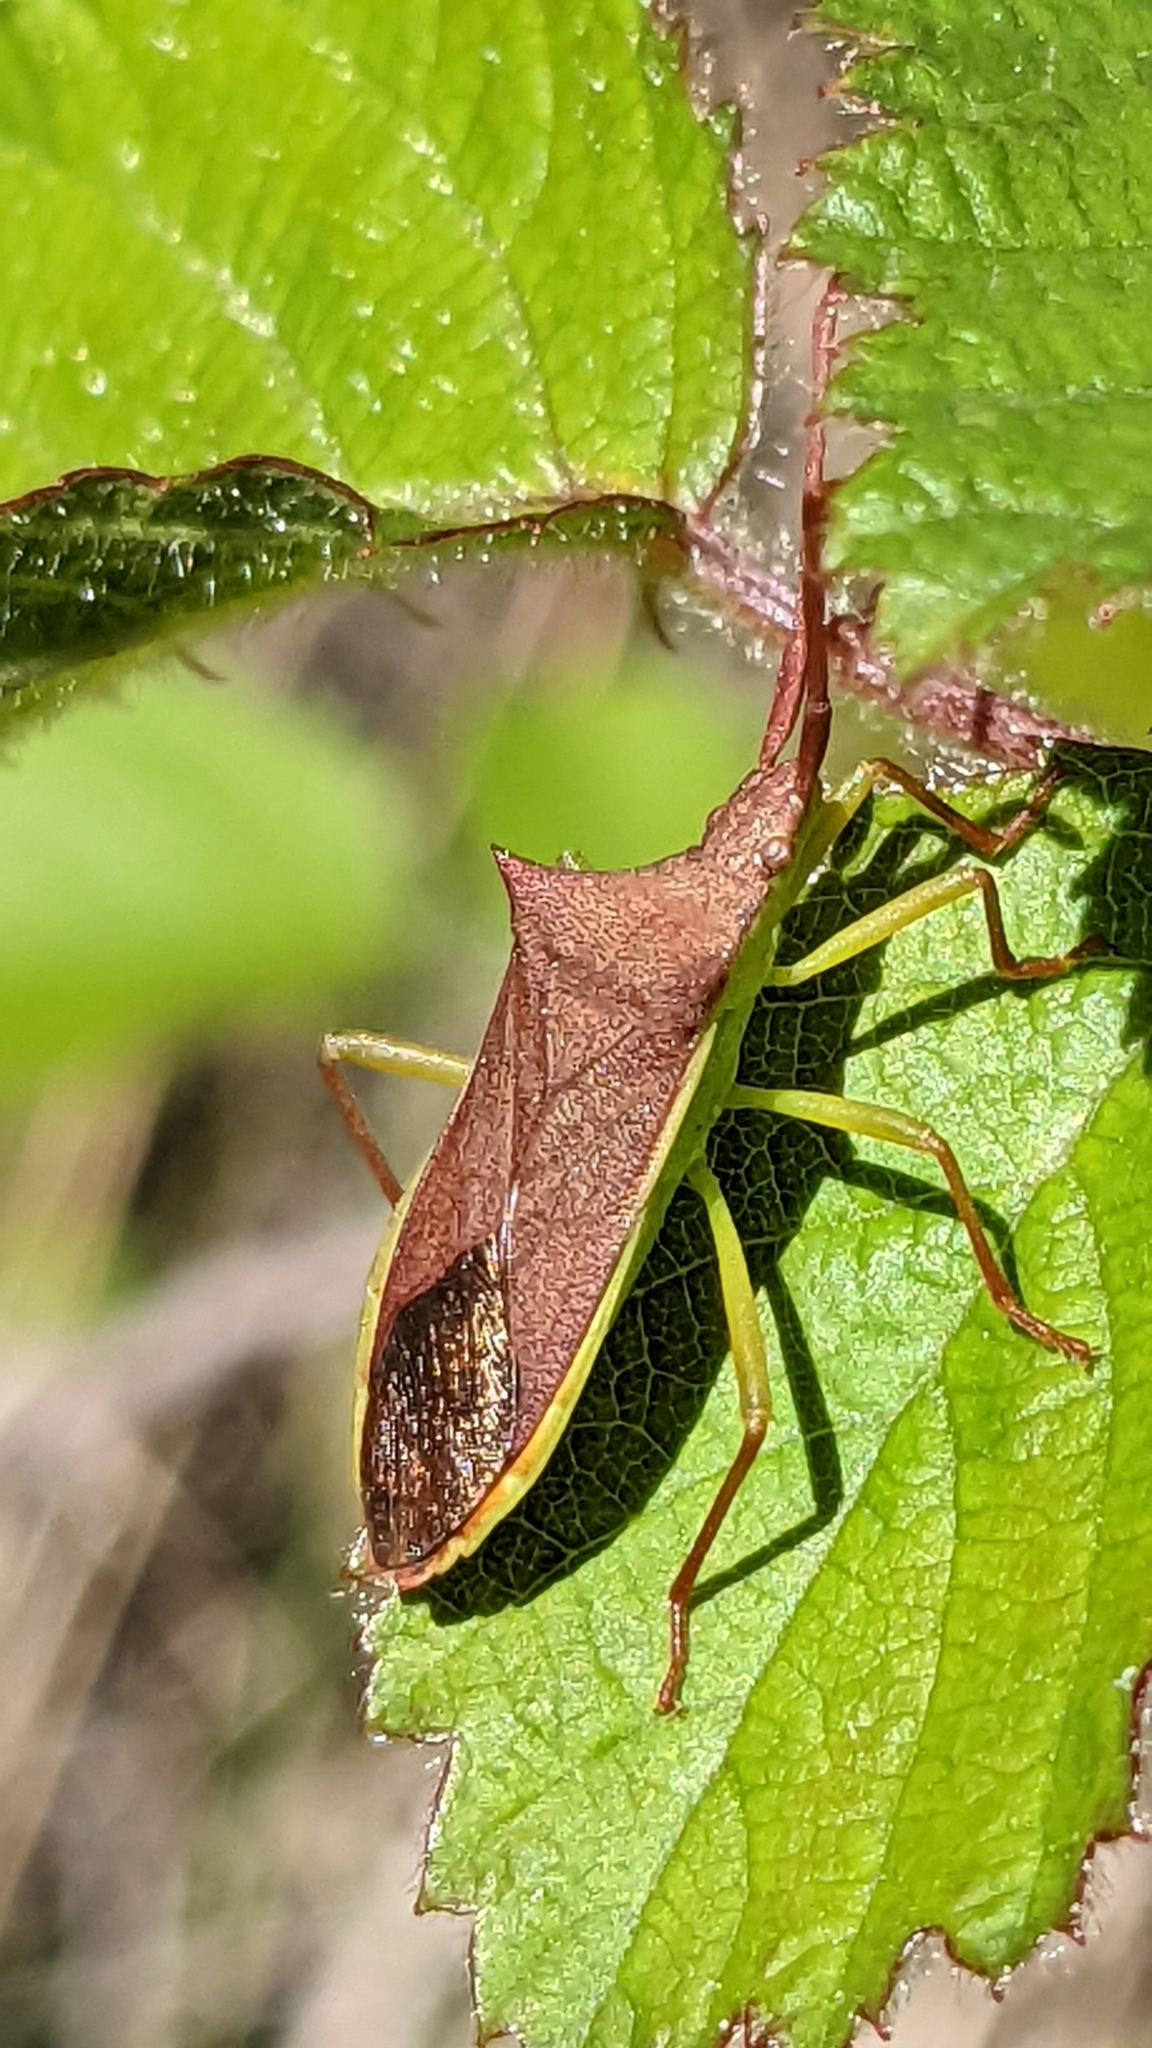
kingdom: Animalia
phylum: Arthropoda
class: Insecta
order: Hemiptera
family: Coreidae
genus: Gonocerus
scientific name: Gonocerus insidiator
